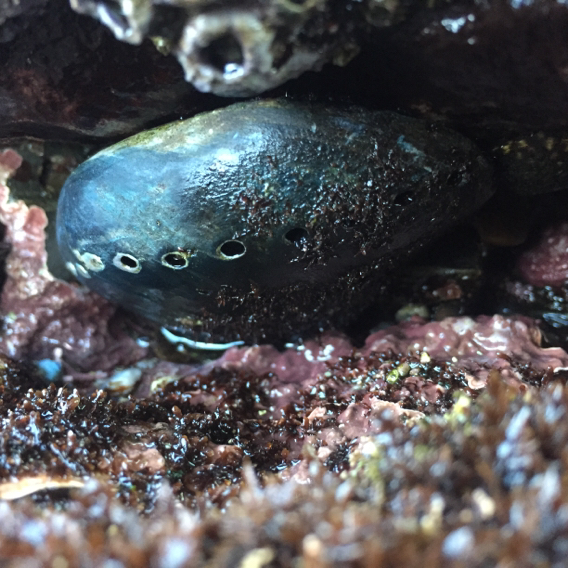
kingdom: Animalia
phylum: Mollusca
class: Gastropoda
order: Lepetellida
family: Haliotidae
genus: Haliotis
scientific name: Haliotis cracherodii
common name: Black abalone
